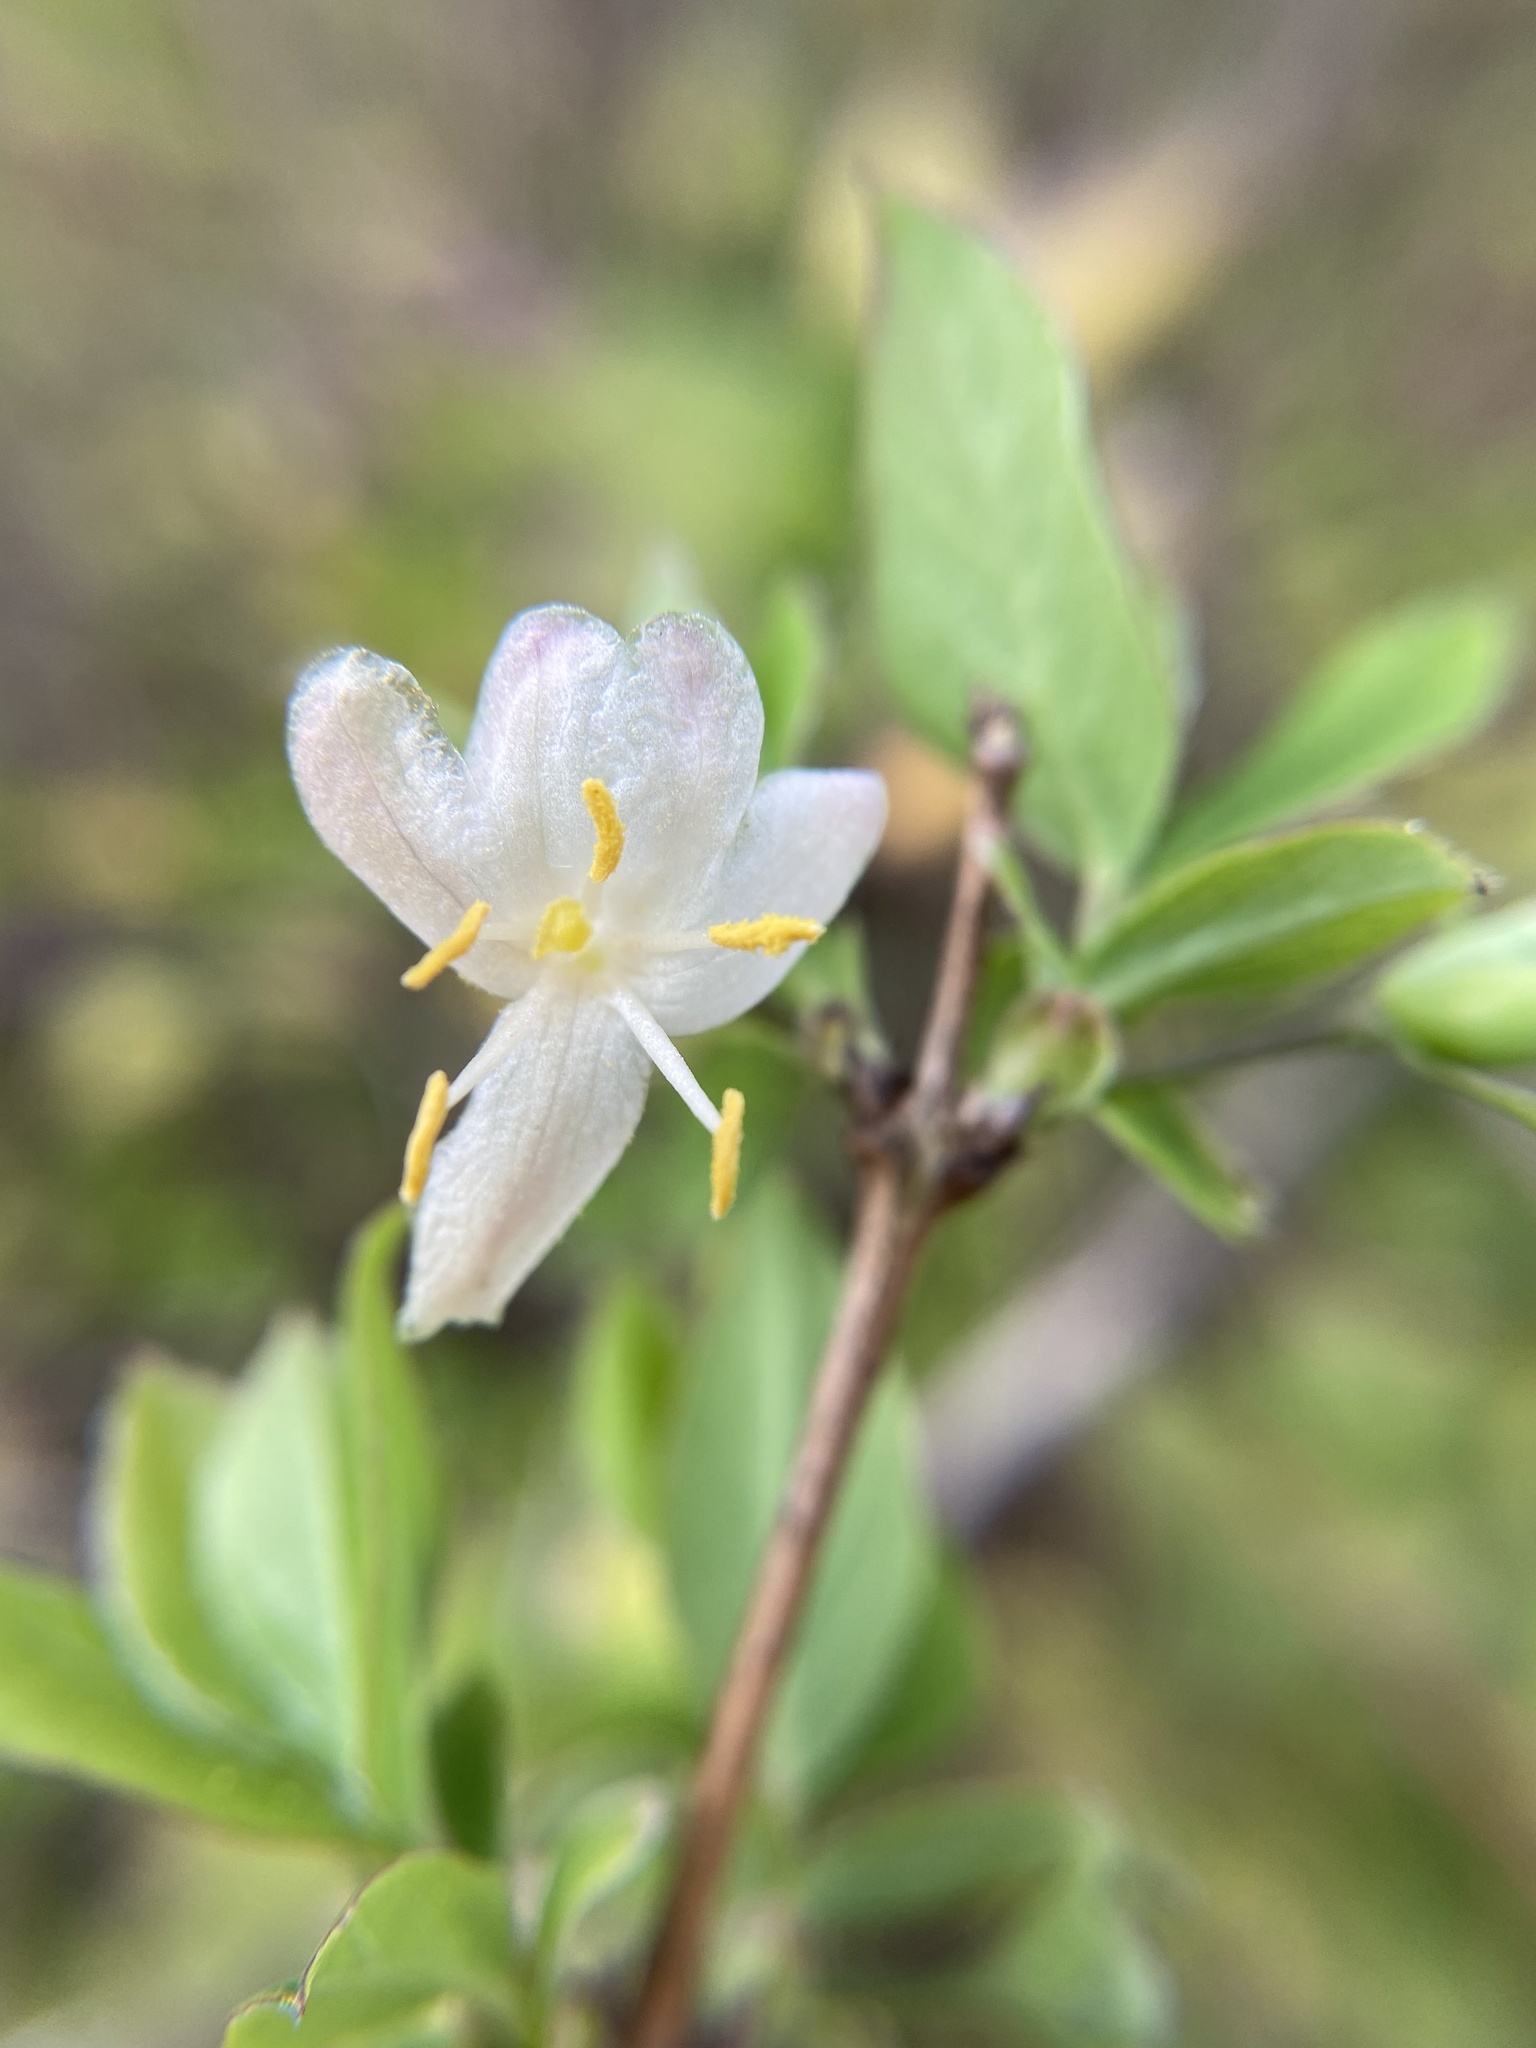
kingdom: Plantae
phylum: Tracheophyta
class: Magnoliopsida
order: Dipsacales
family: Caprifoliaceae
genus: Lonicera
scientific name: Lonicera fragrantissima
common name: Fragrant honeysuckle
